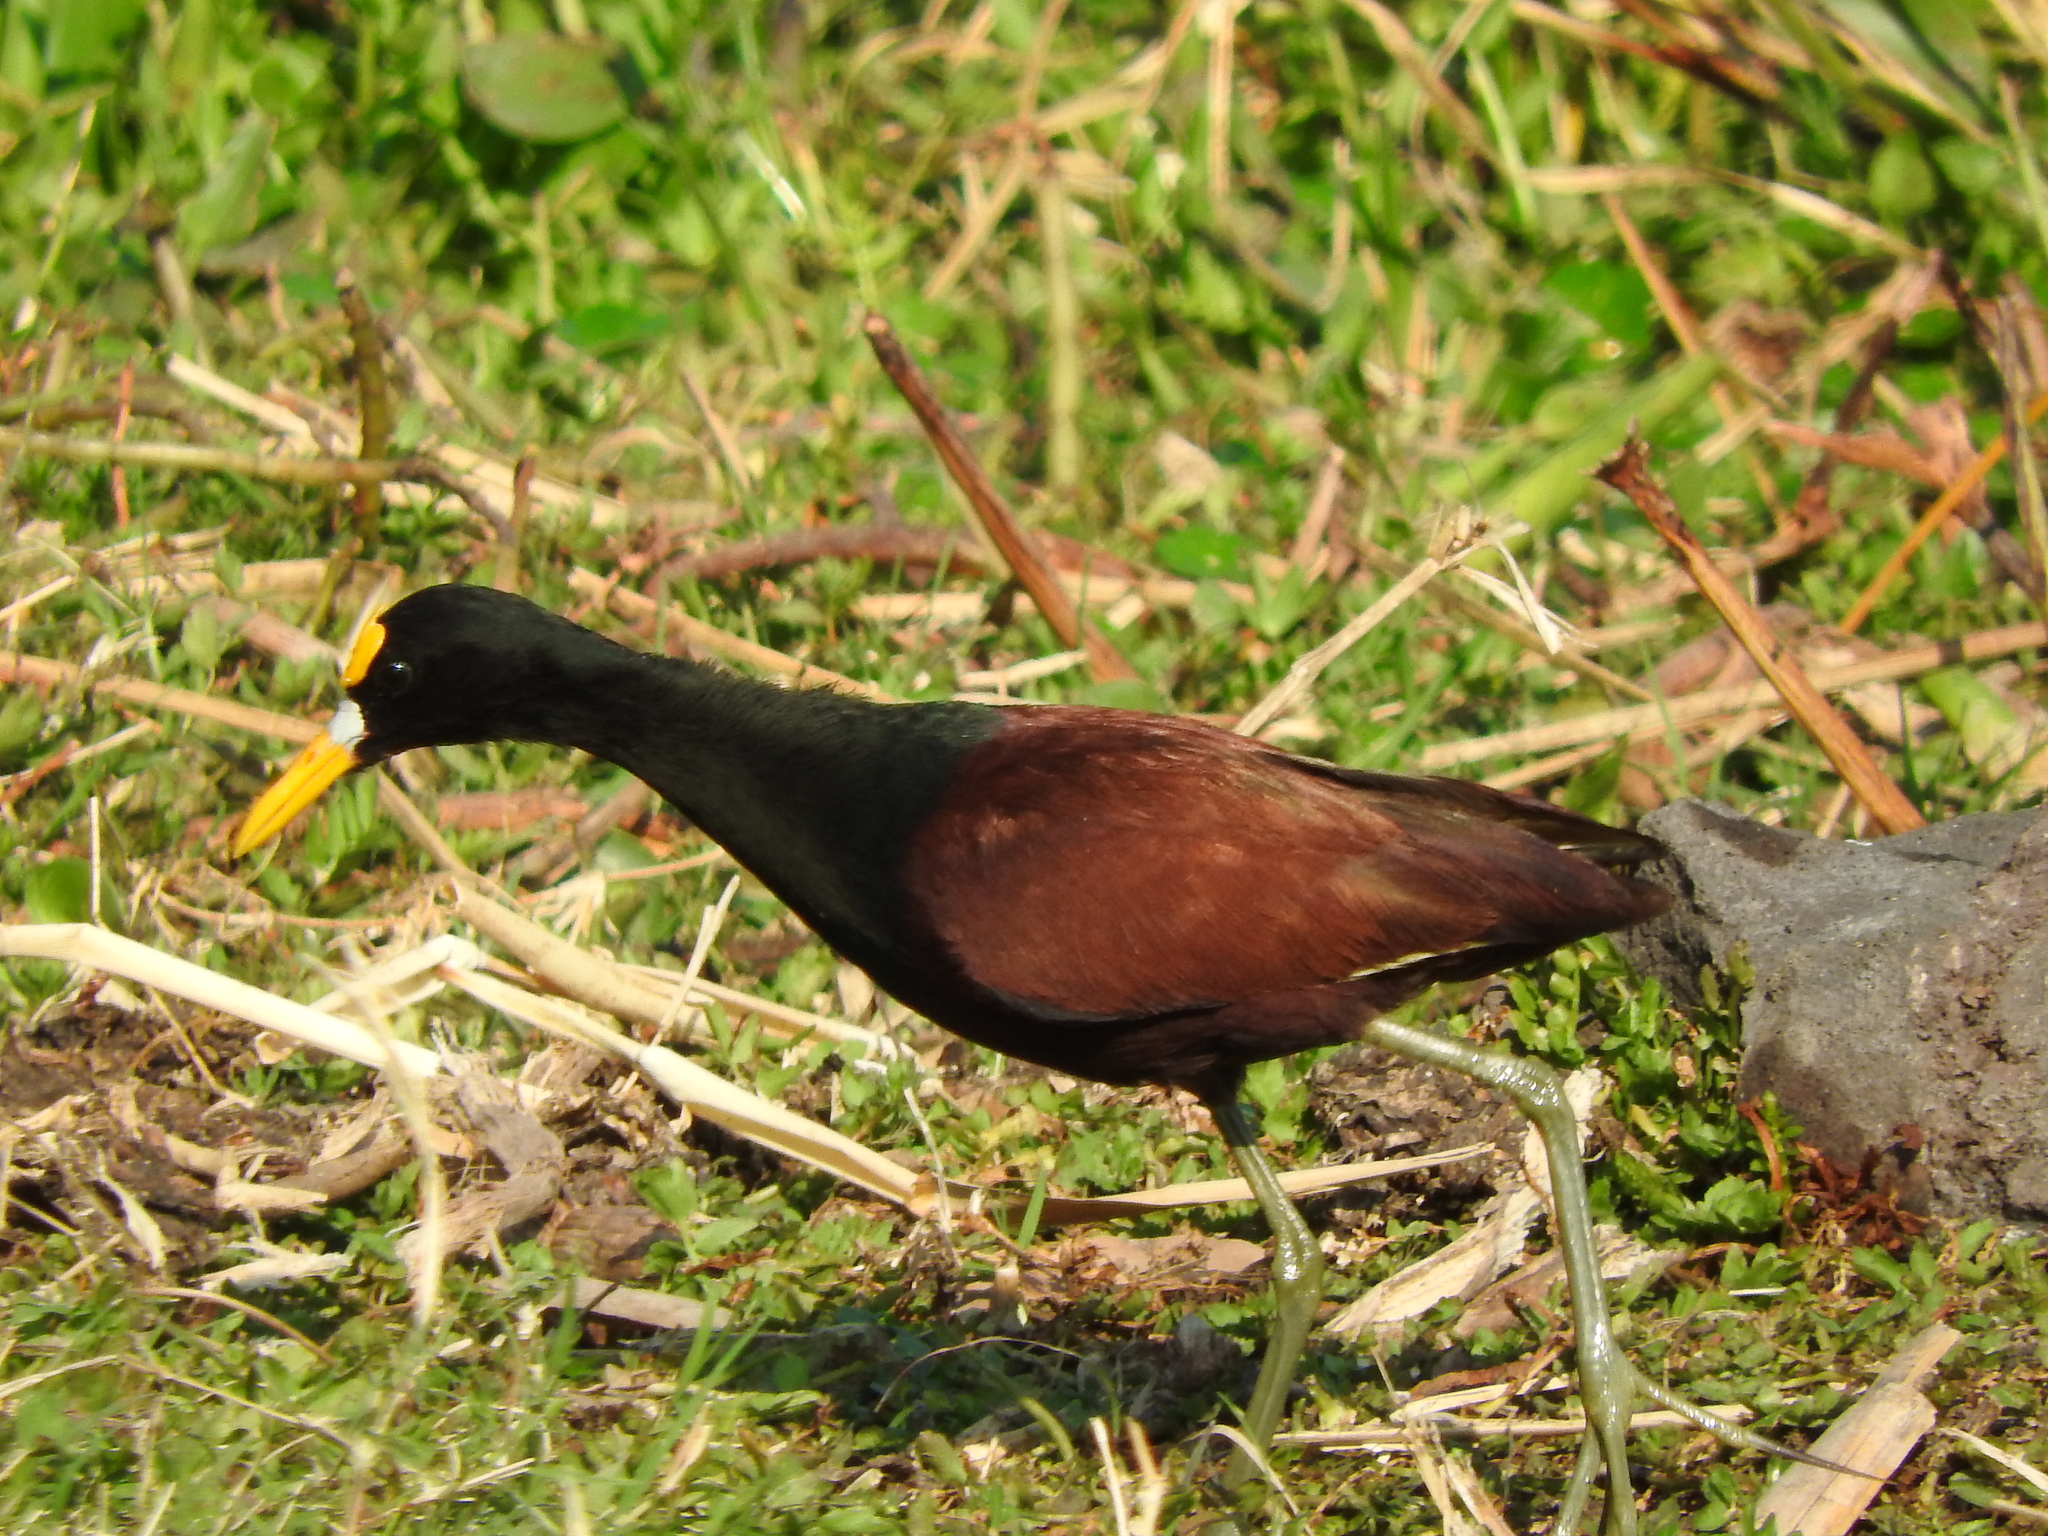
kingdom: Animalia
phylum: Chordata
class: Aves
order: Charadriiformes
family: Jacanidae
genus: Jacana
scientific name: Jacana spinosa
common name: Northern jacana
